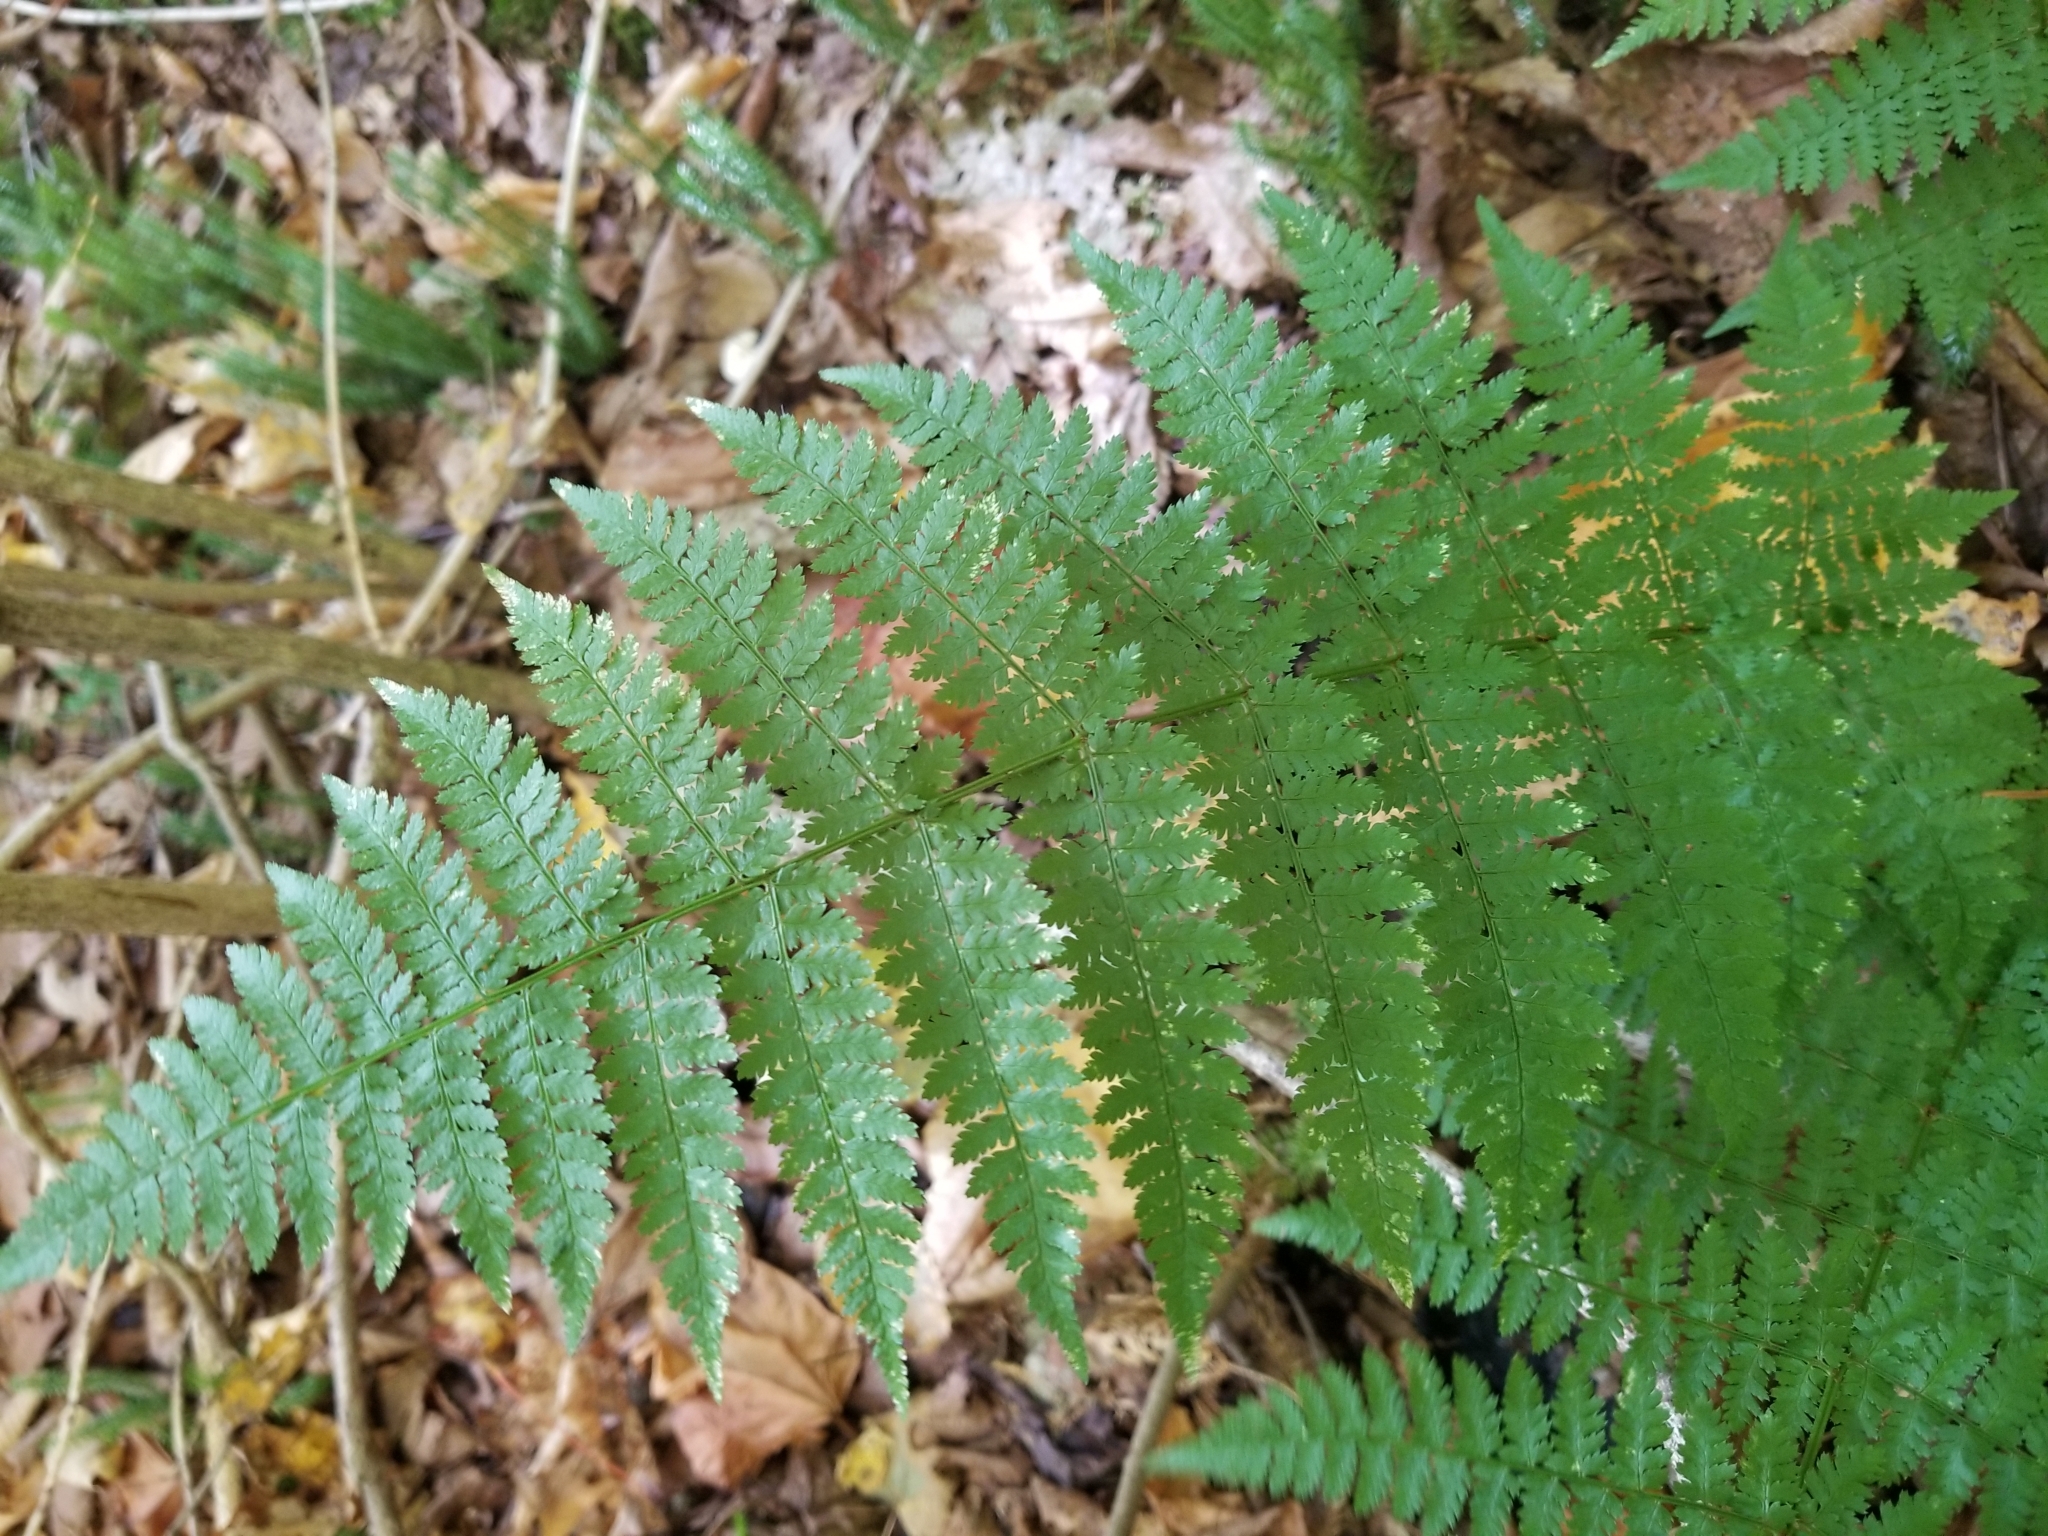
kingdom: Plantae
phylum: Tracheophyta
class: Polypodiopsida
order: Polypodiales
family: Dryopteridaceae
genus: Dryopteris
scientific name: Dryopteris intermedia
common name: Evergreen wood fern
